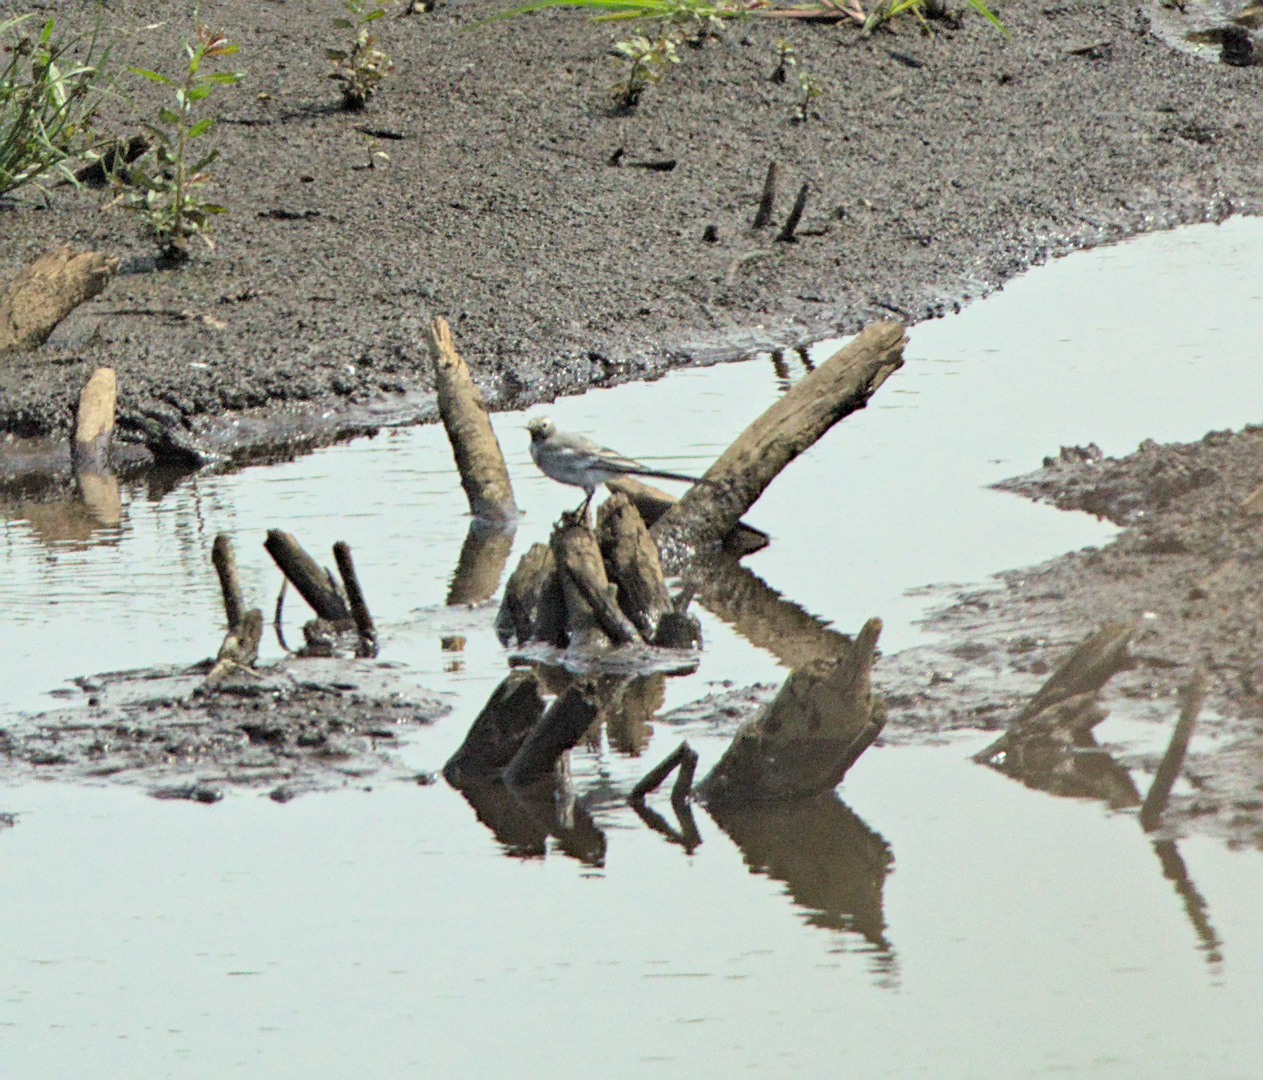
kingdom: Animalia
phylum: Chordata
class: Aves
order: Passeriformes
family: Motacillidae
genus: Motacilla
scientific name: Motacilla alba
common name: White wagtail
